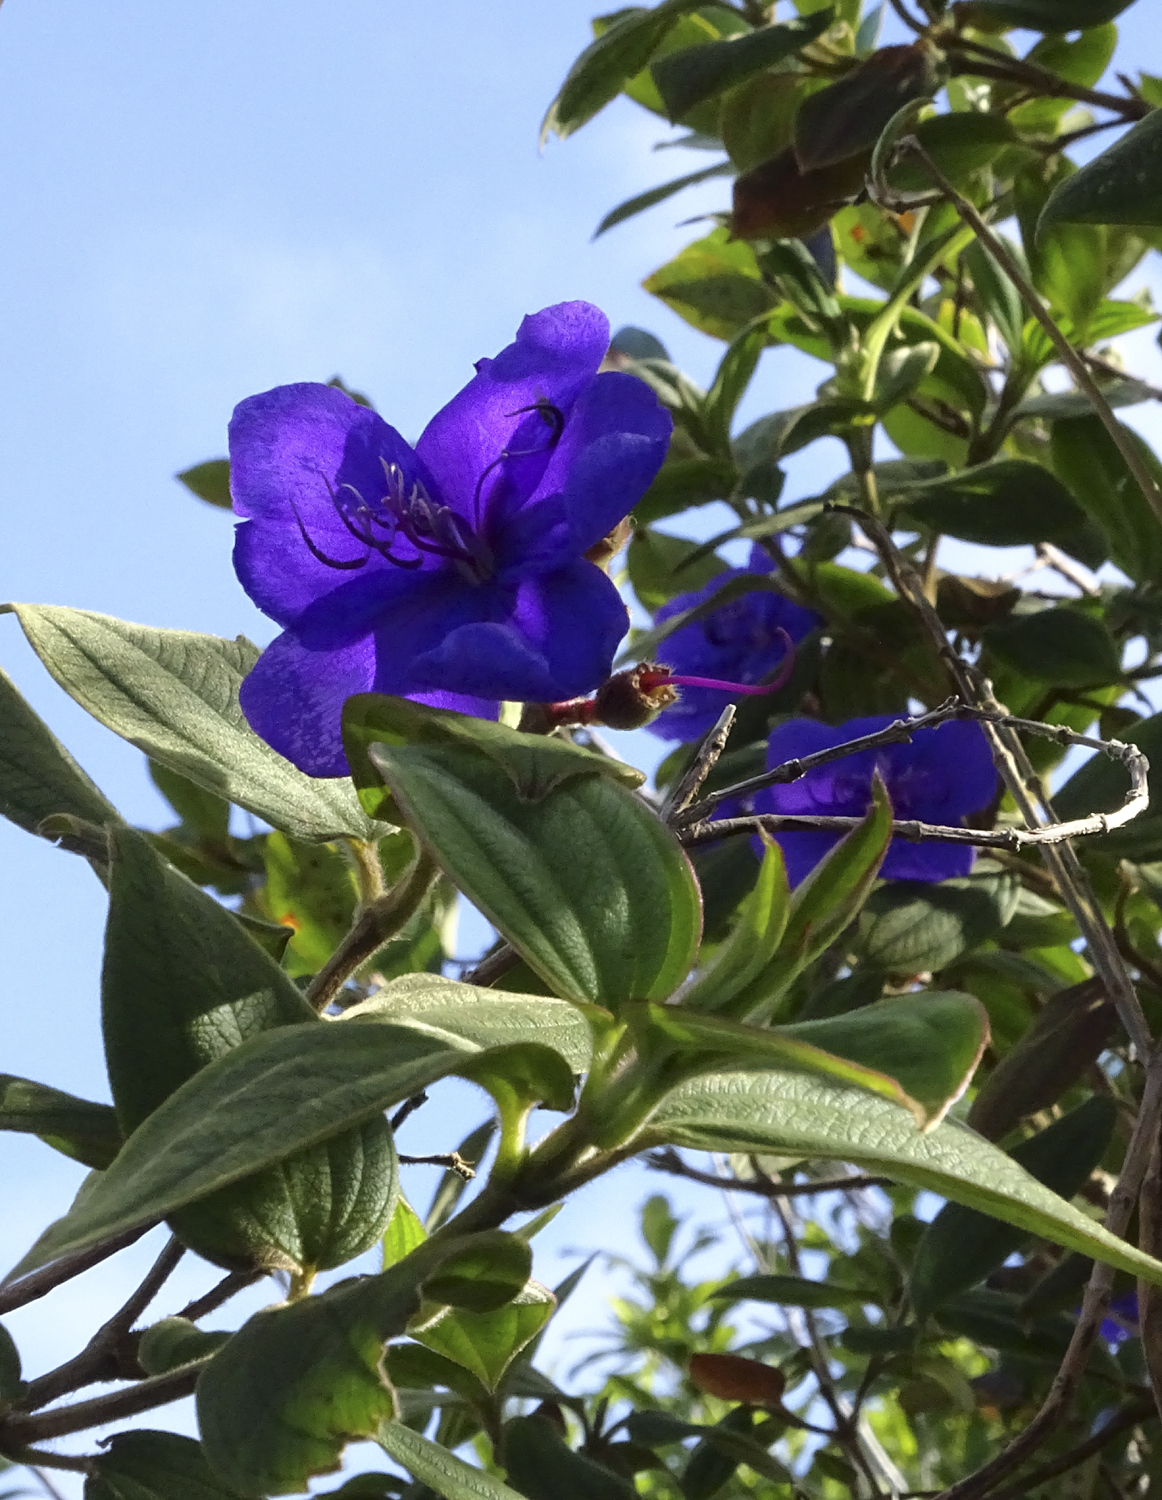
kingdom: Plantae
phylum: Tracheophyta
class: Magnoliopsida
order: Myrtales
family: Melastomataceae
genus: Pleroma
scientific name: Pleroma urvilleanum
